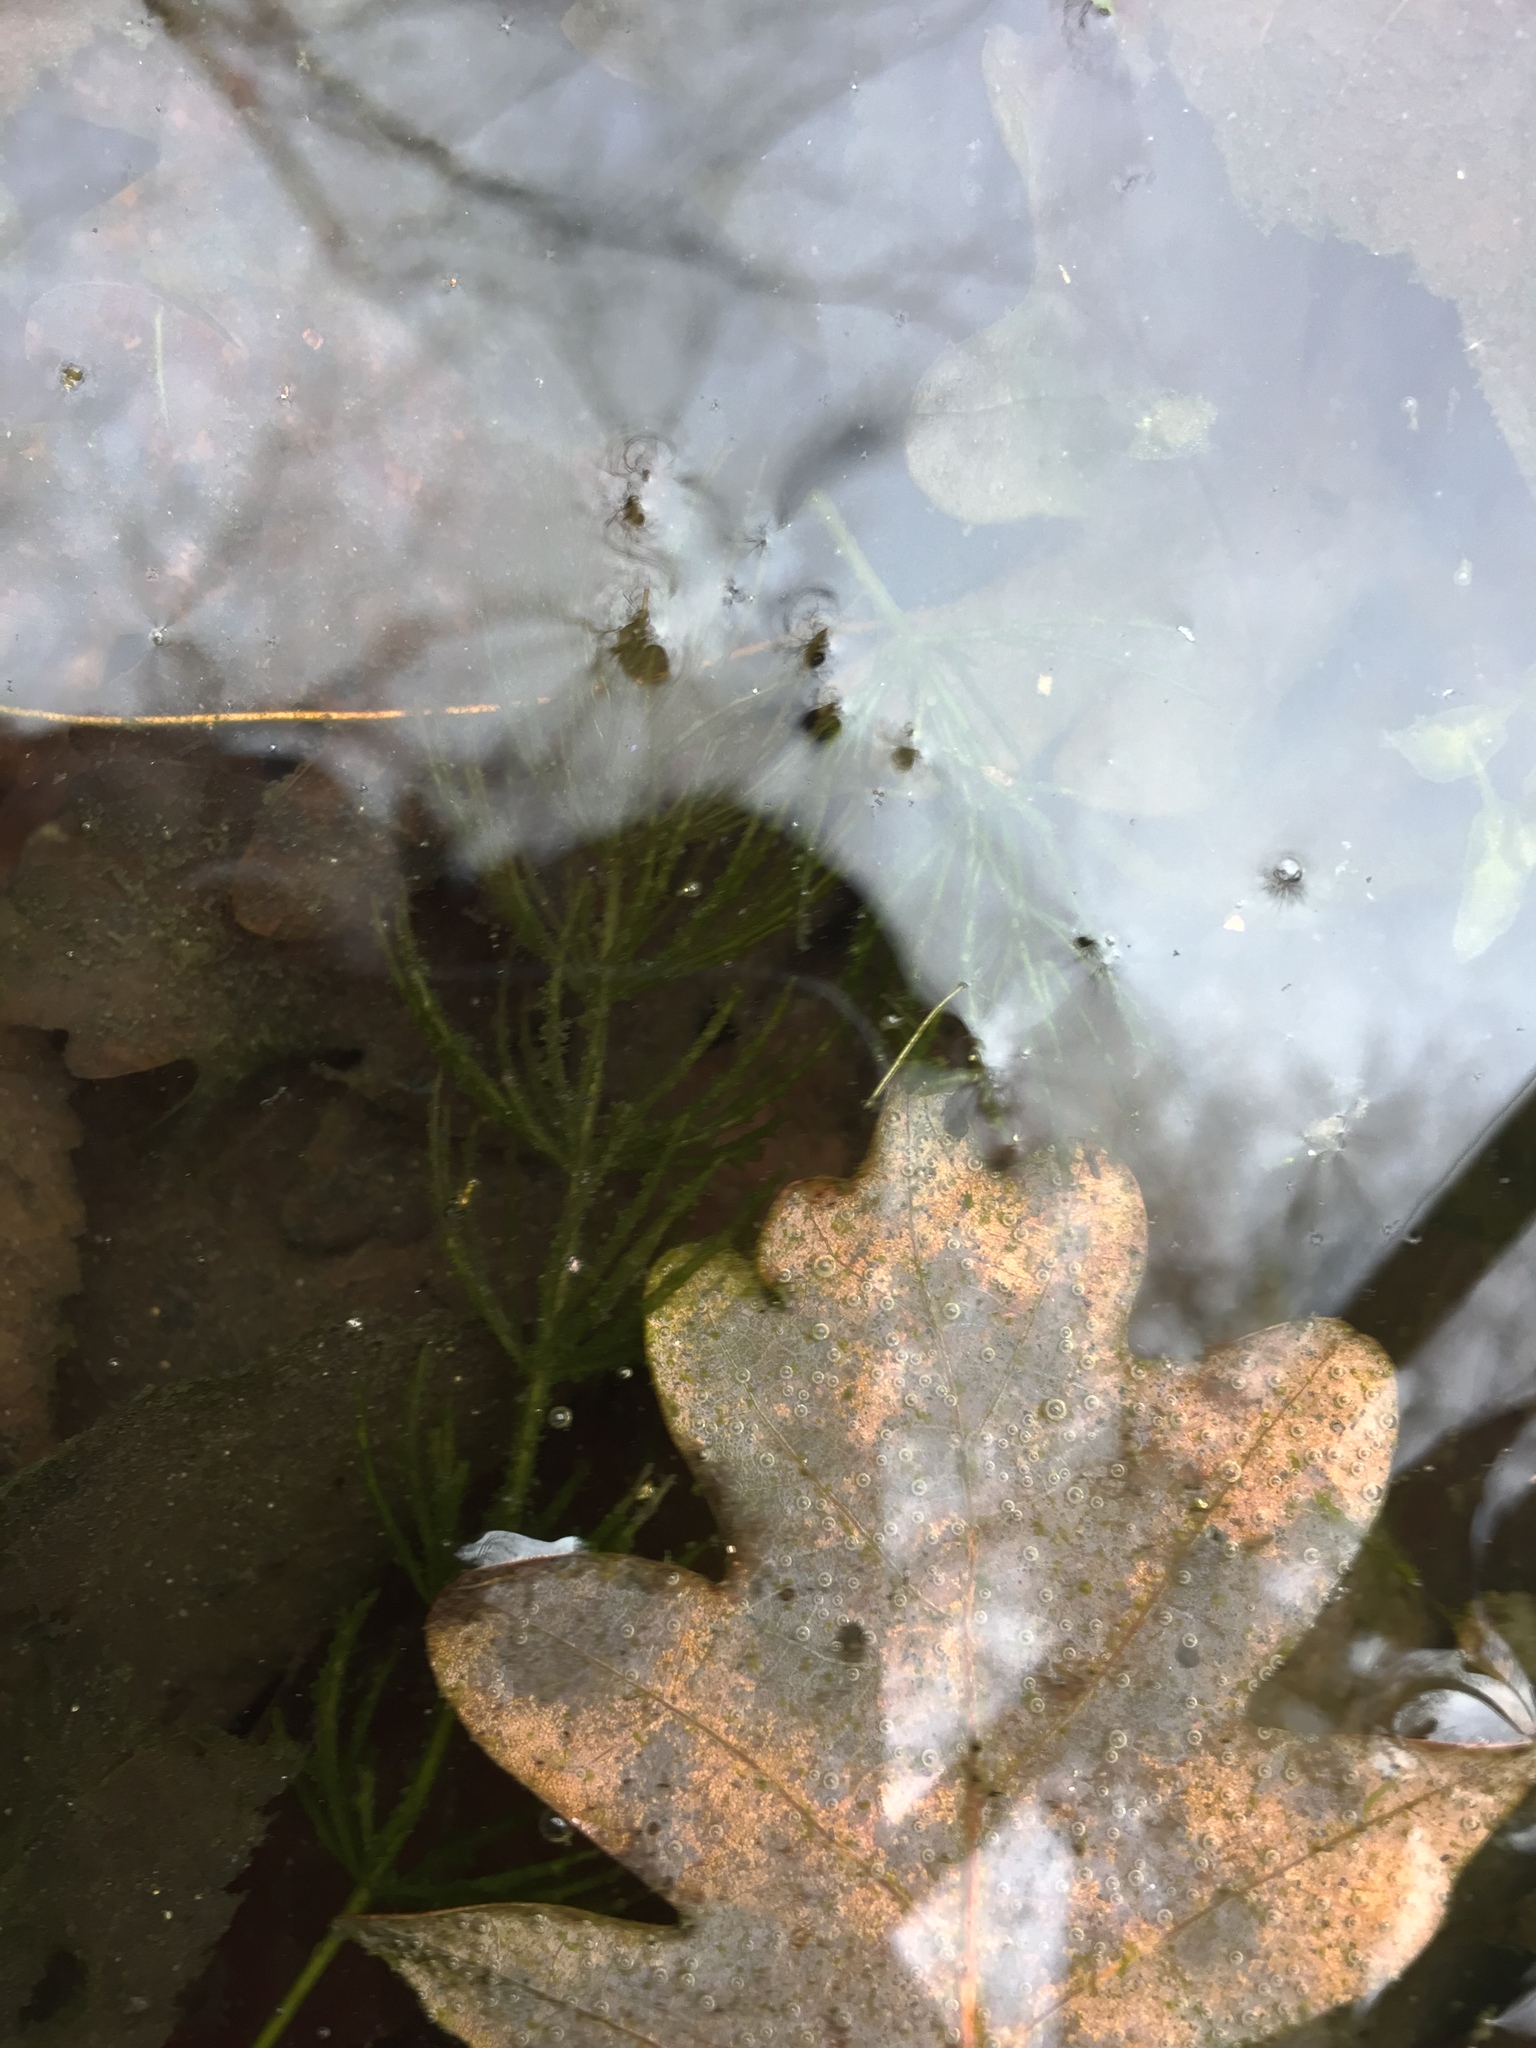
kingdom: Plantae
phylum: Tracheophyta
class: Magnoliopsida
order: Ceratophyllales
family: Ceratophyllaceae
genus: Ceratophyllum
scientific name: Ceratophyllum demersum
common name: Rigid hornwort
